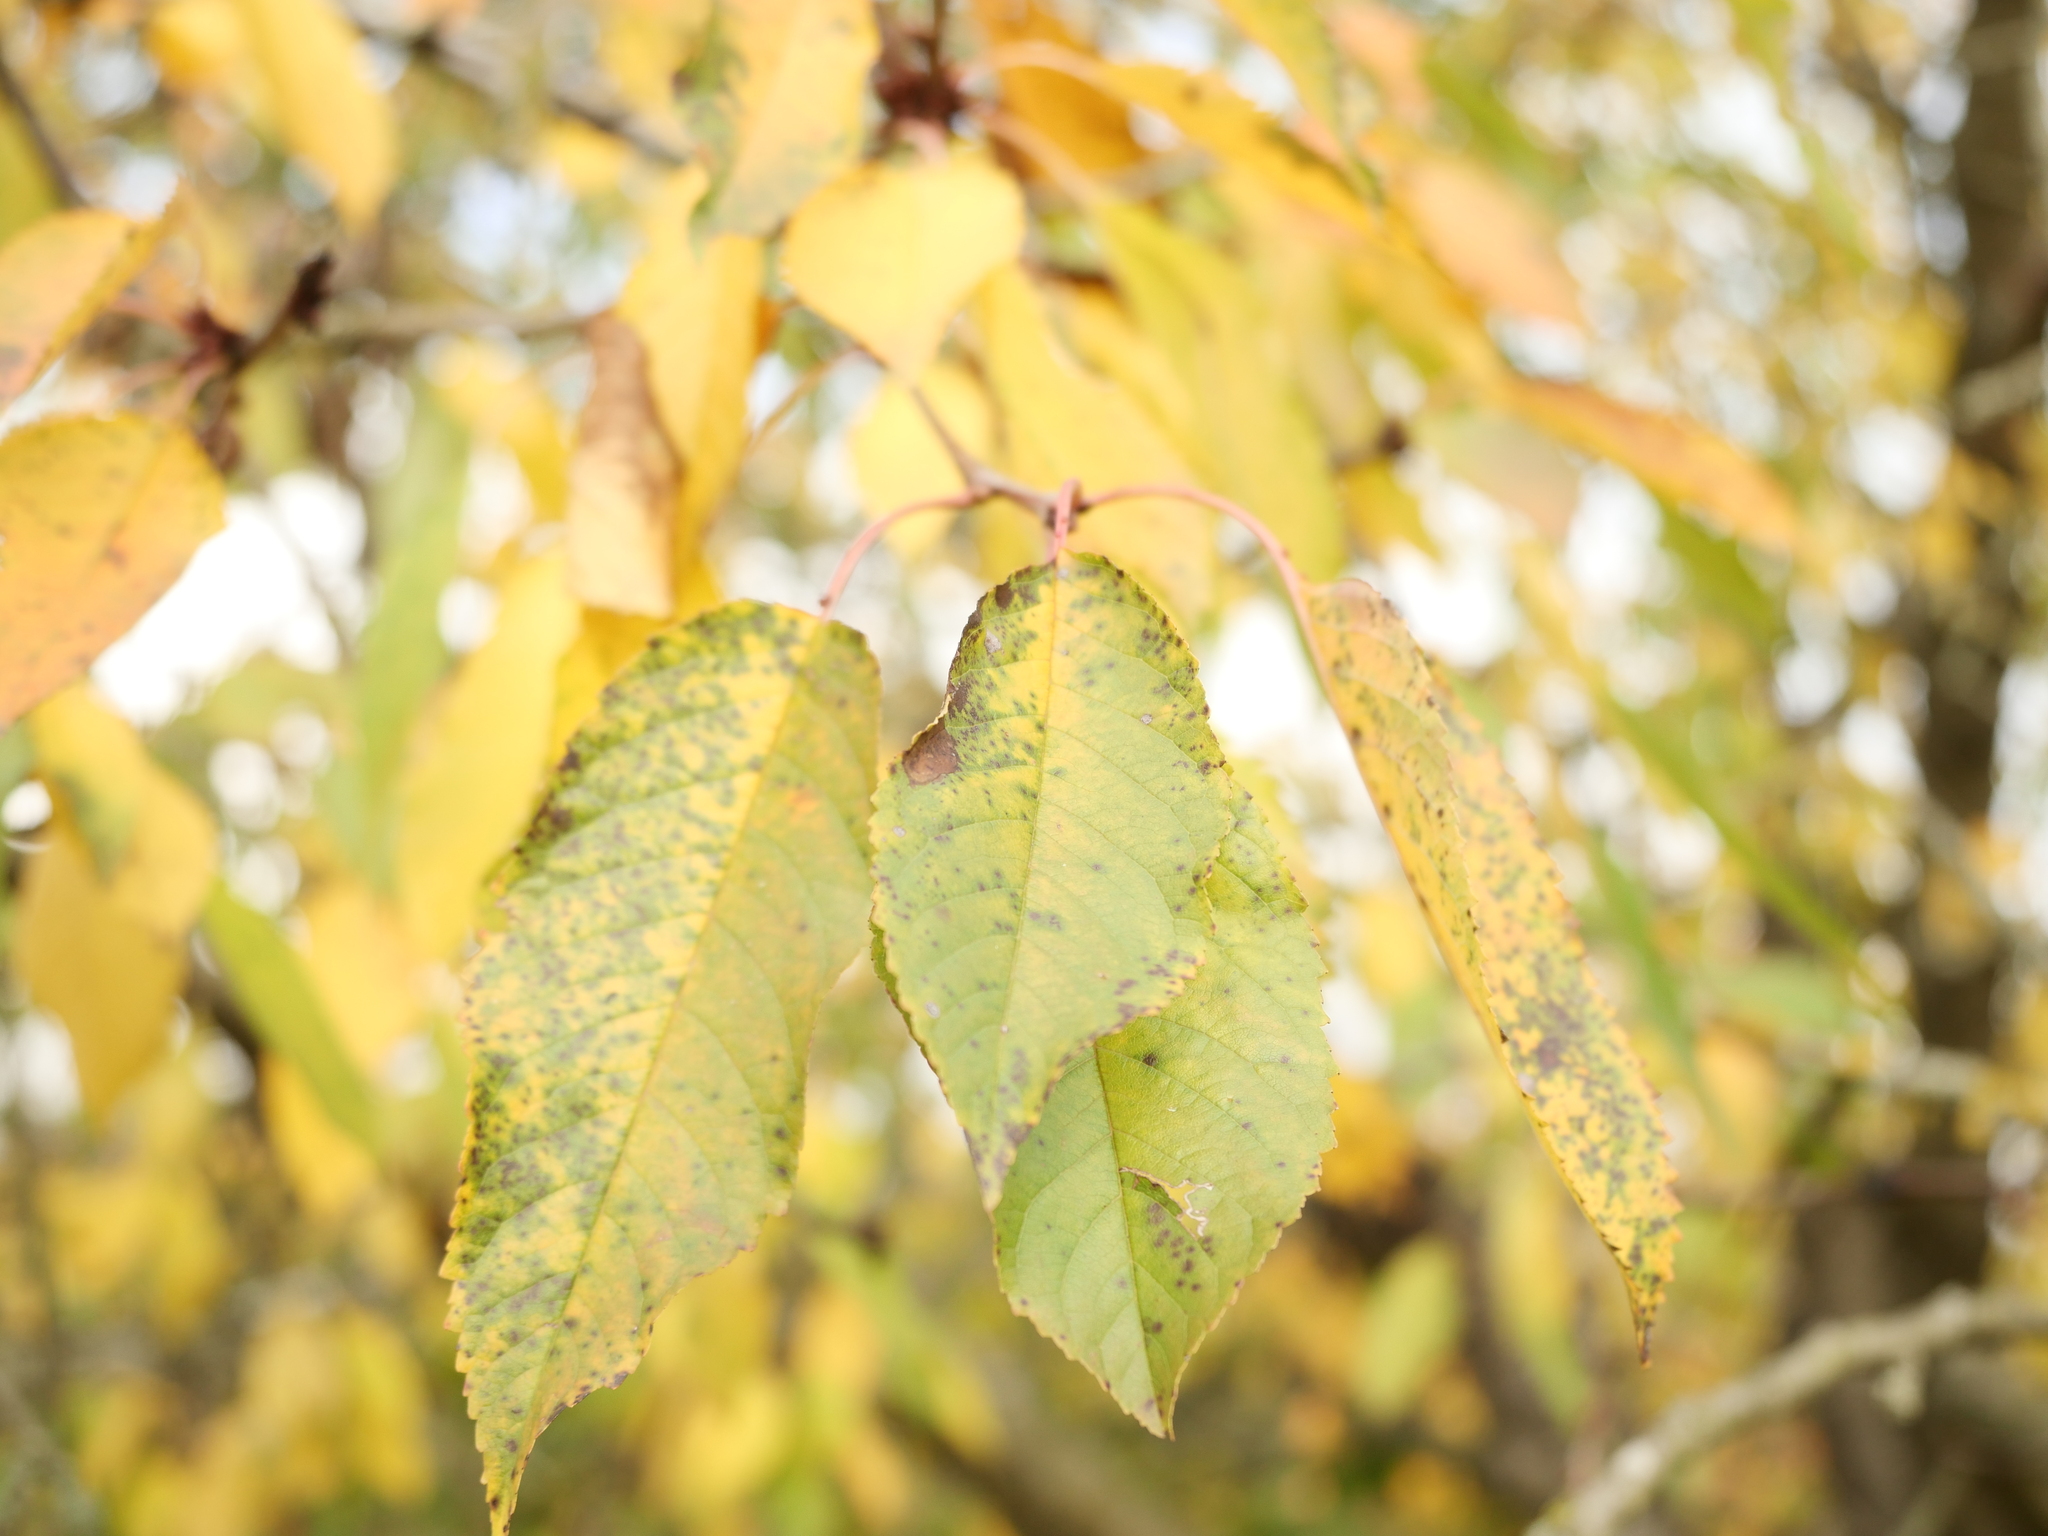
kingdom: Plantae
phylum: Tracheophyta
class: Magnoliopsida
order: Rosales
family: Rosaceae
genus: Prunus
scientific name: Prunus avium
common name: Sweet cherry
